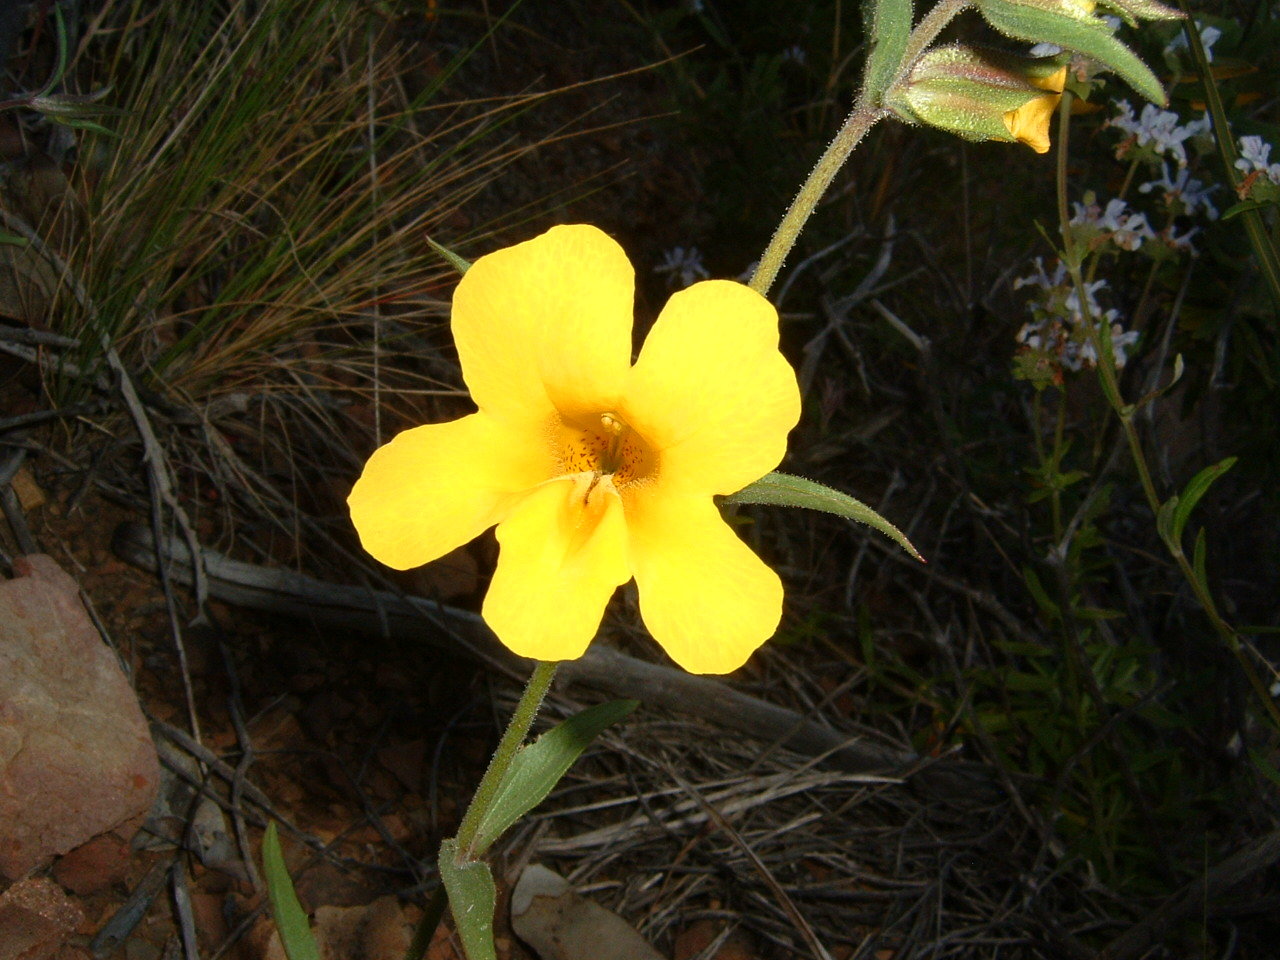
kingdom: Plantae
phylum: Tracheophyta
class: Magnoliopsida
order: Lamiales
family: Phrymaceae
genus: Diplacus
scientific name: Diplacus brevipes
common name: Wide-throat yellow monkey-flower
